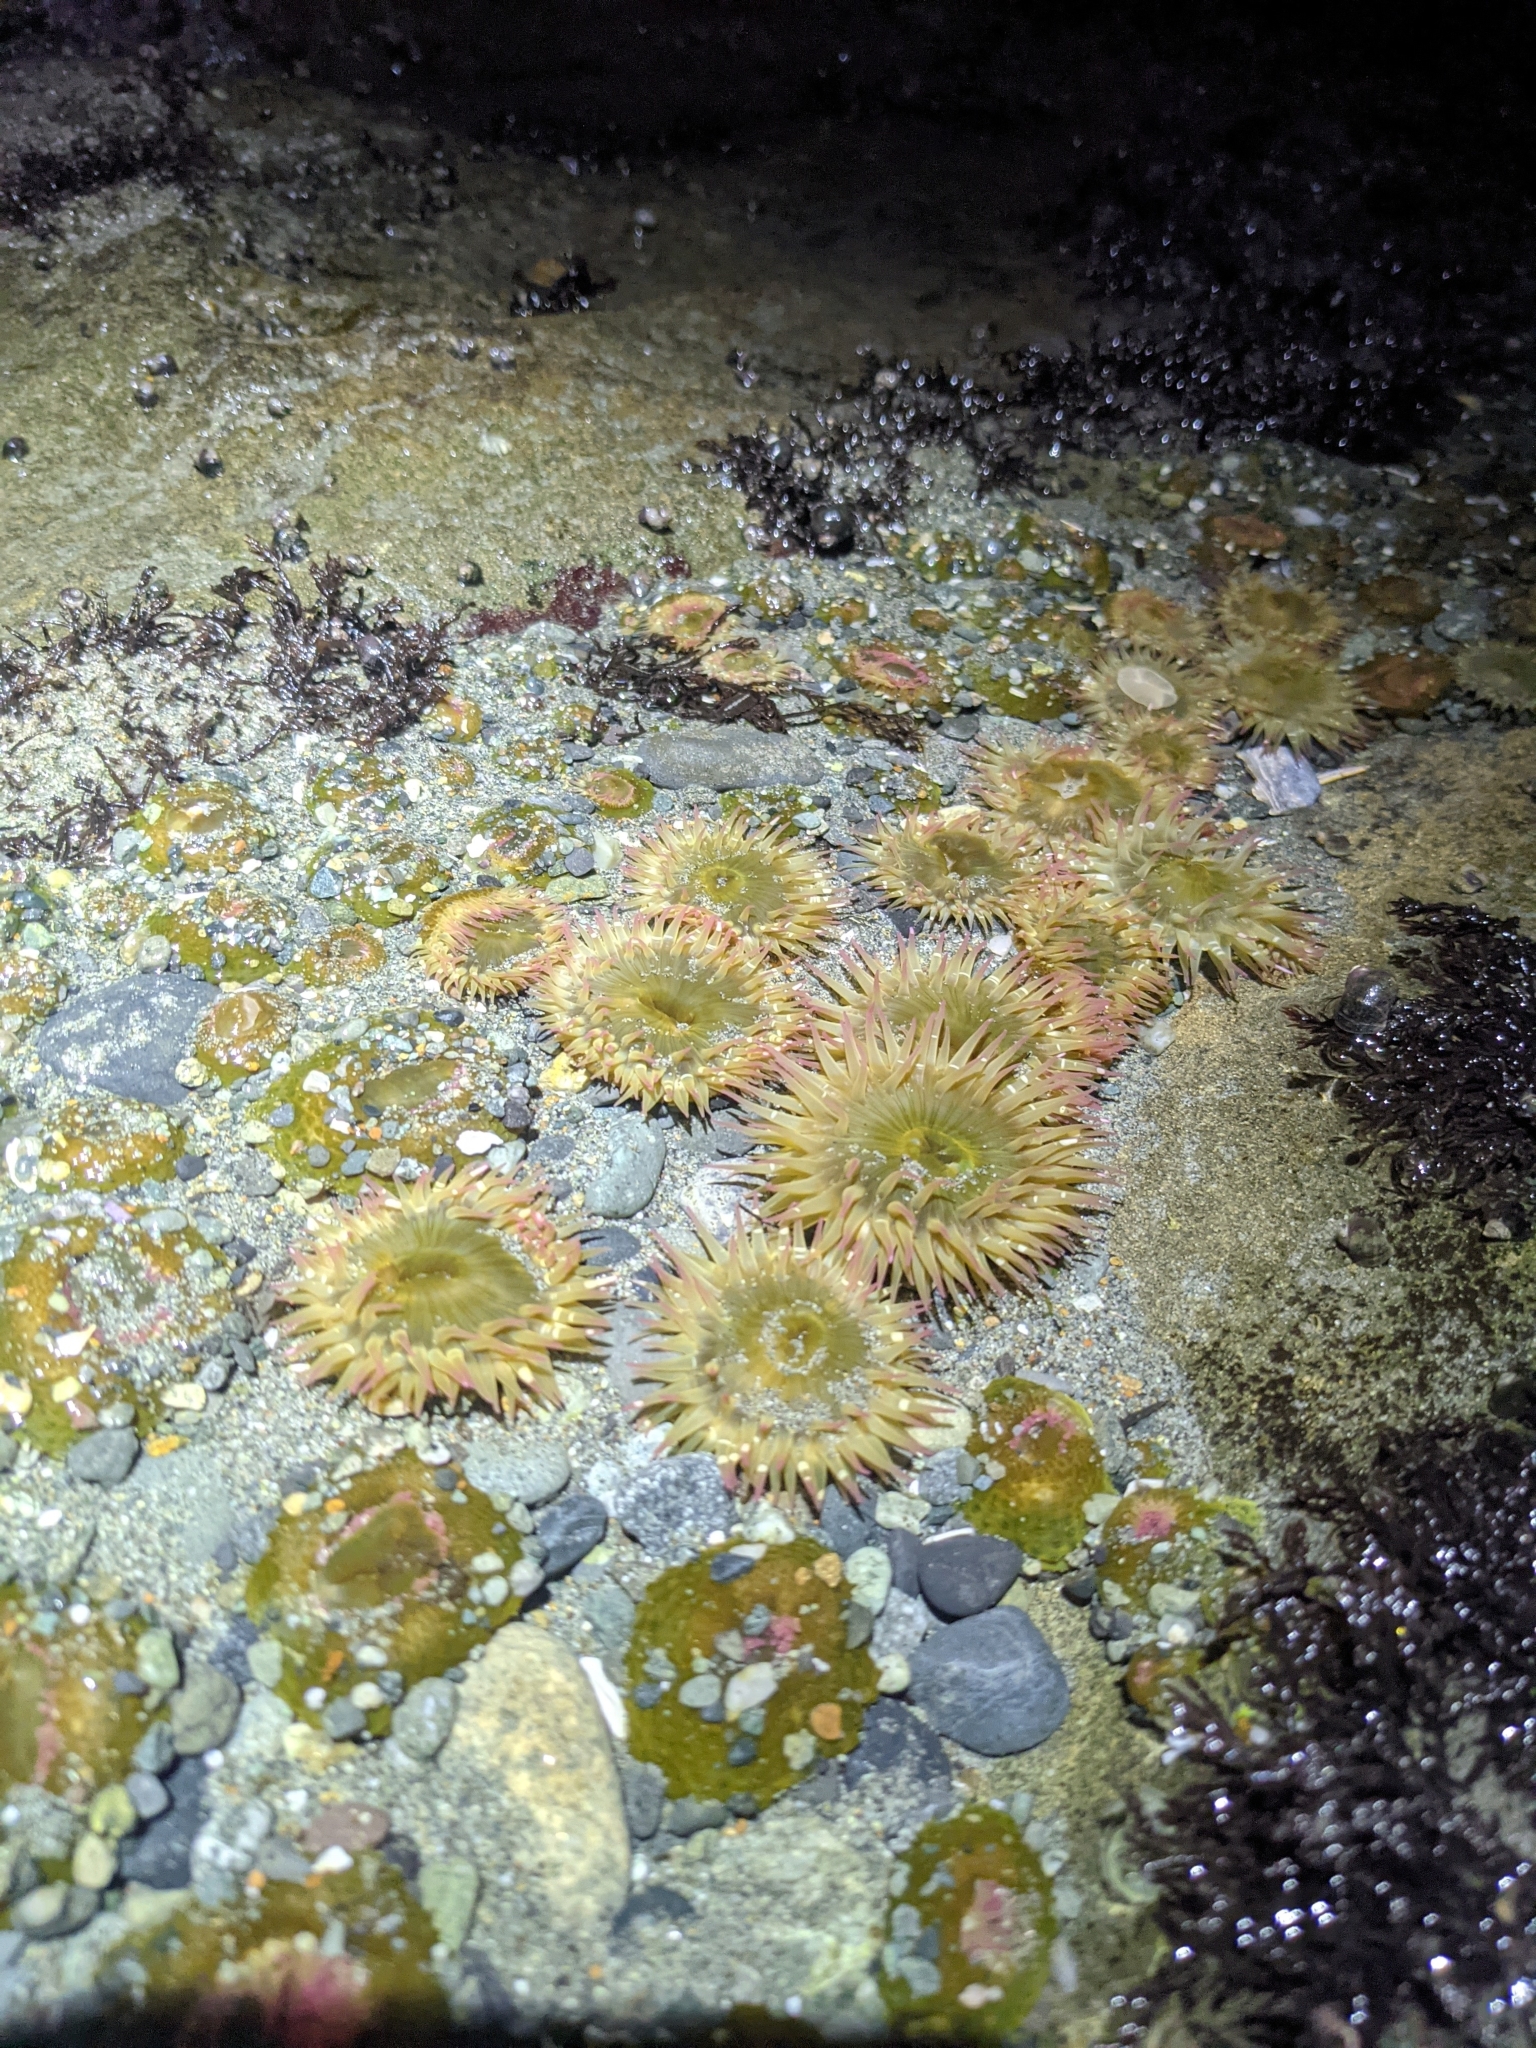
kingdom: Animalia
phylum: Cnidaria
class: Anthozoa
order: Actiniaria
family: Actiniidae
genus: Anthopleura
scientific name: Anthopleura elegantissima
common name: Clonal anemone
